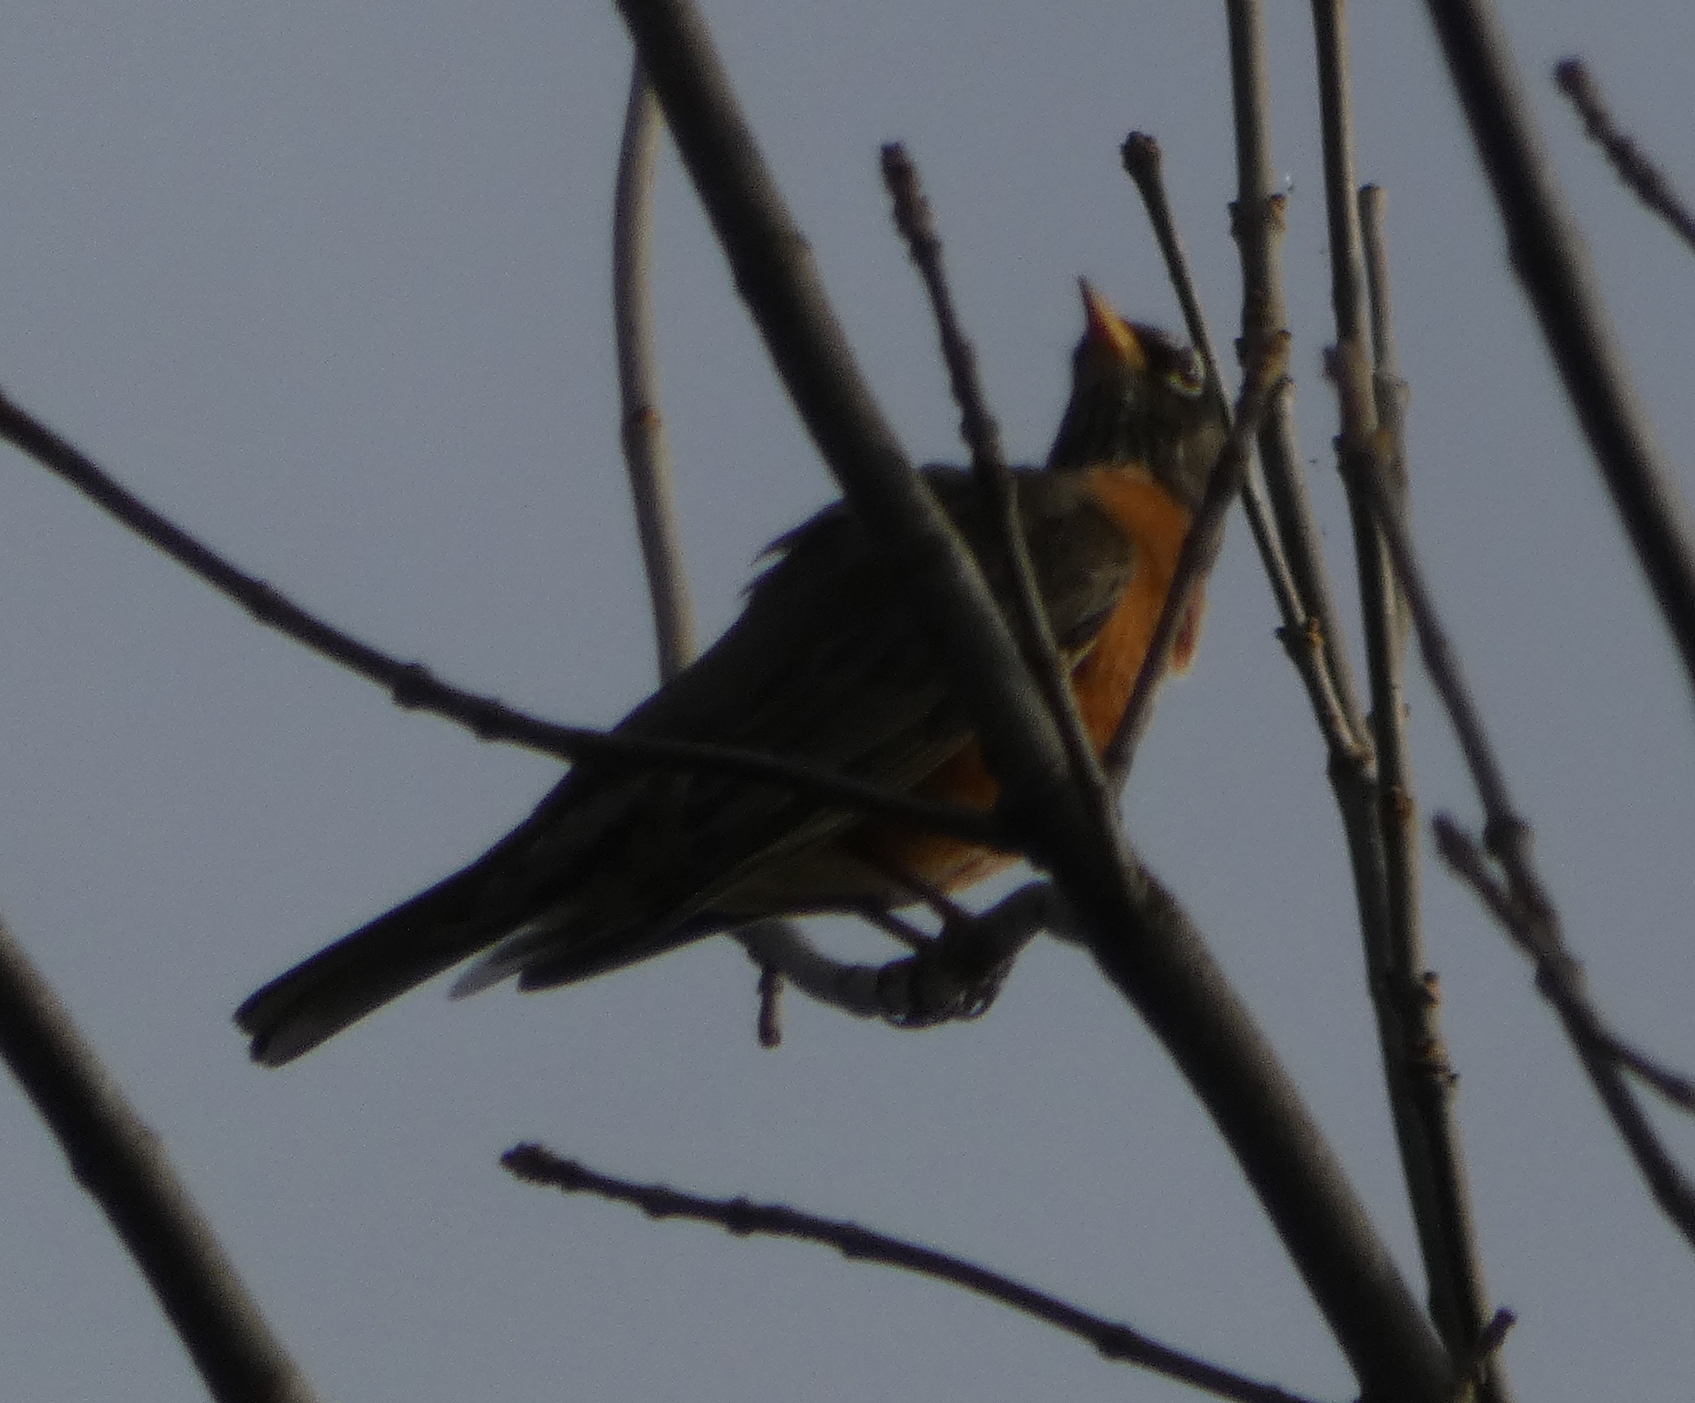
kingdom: Animalia
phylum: Chordata
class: Aves
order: Passeriformes
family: Turdidae
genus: Turdus
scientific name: Turdus migratorius
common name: American robin
